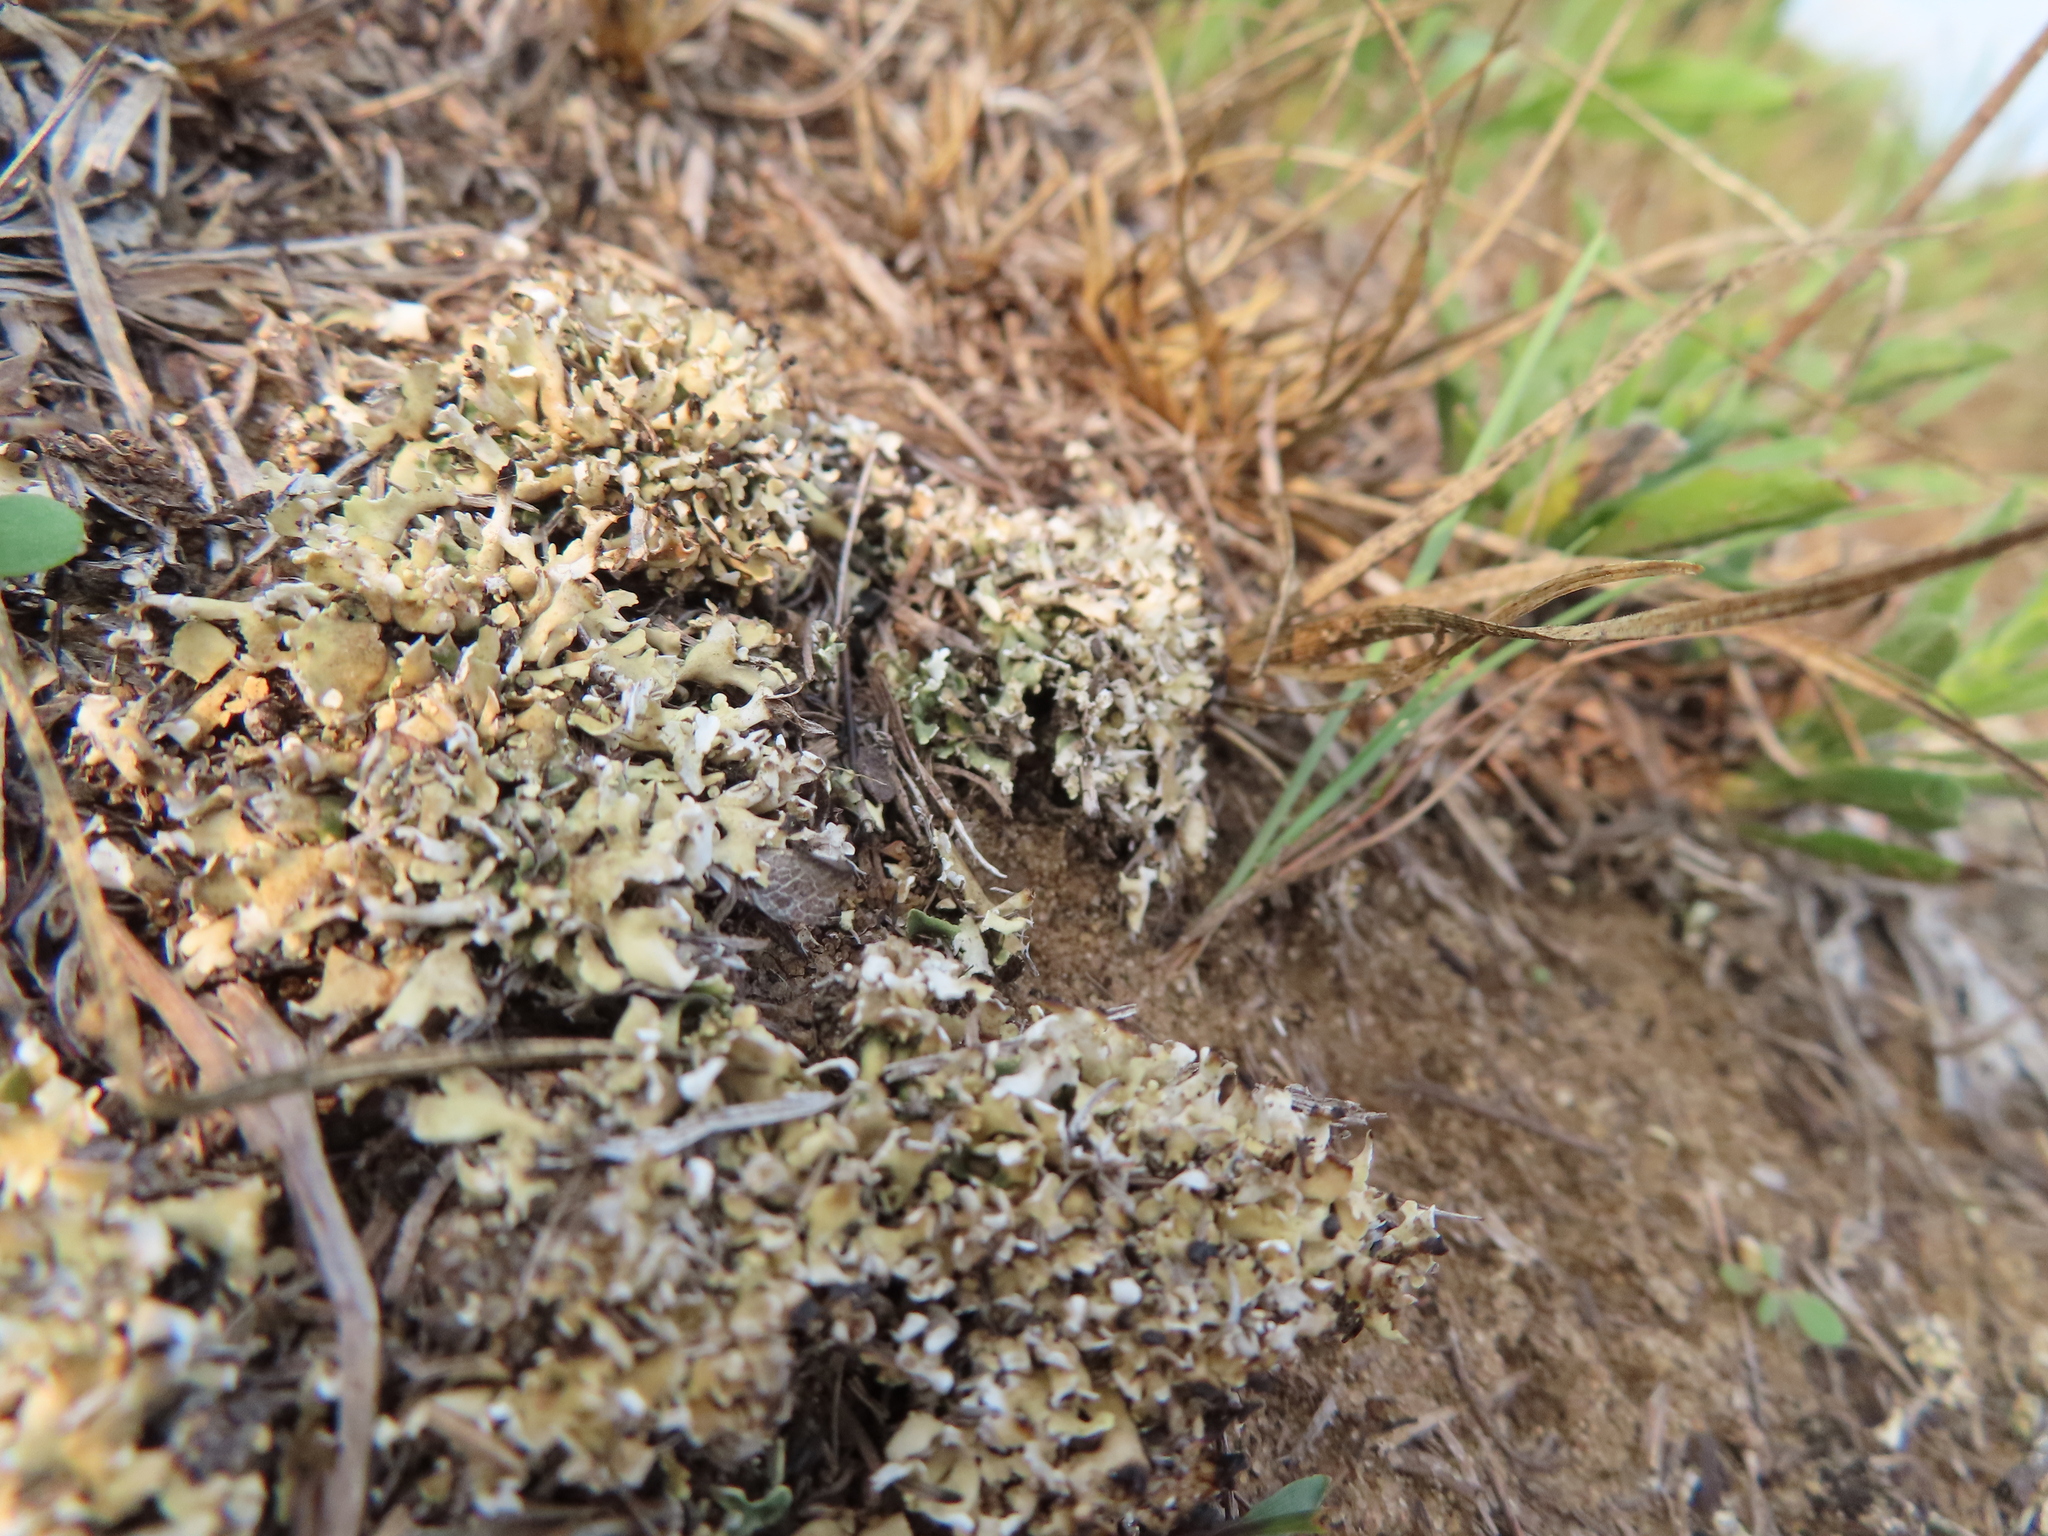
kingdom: Fungi
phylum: Ascomycota
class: Lecanoromycetes
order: Lecanorales
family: Cladoniaceae
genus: Cladonia
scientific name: Cladonia
